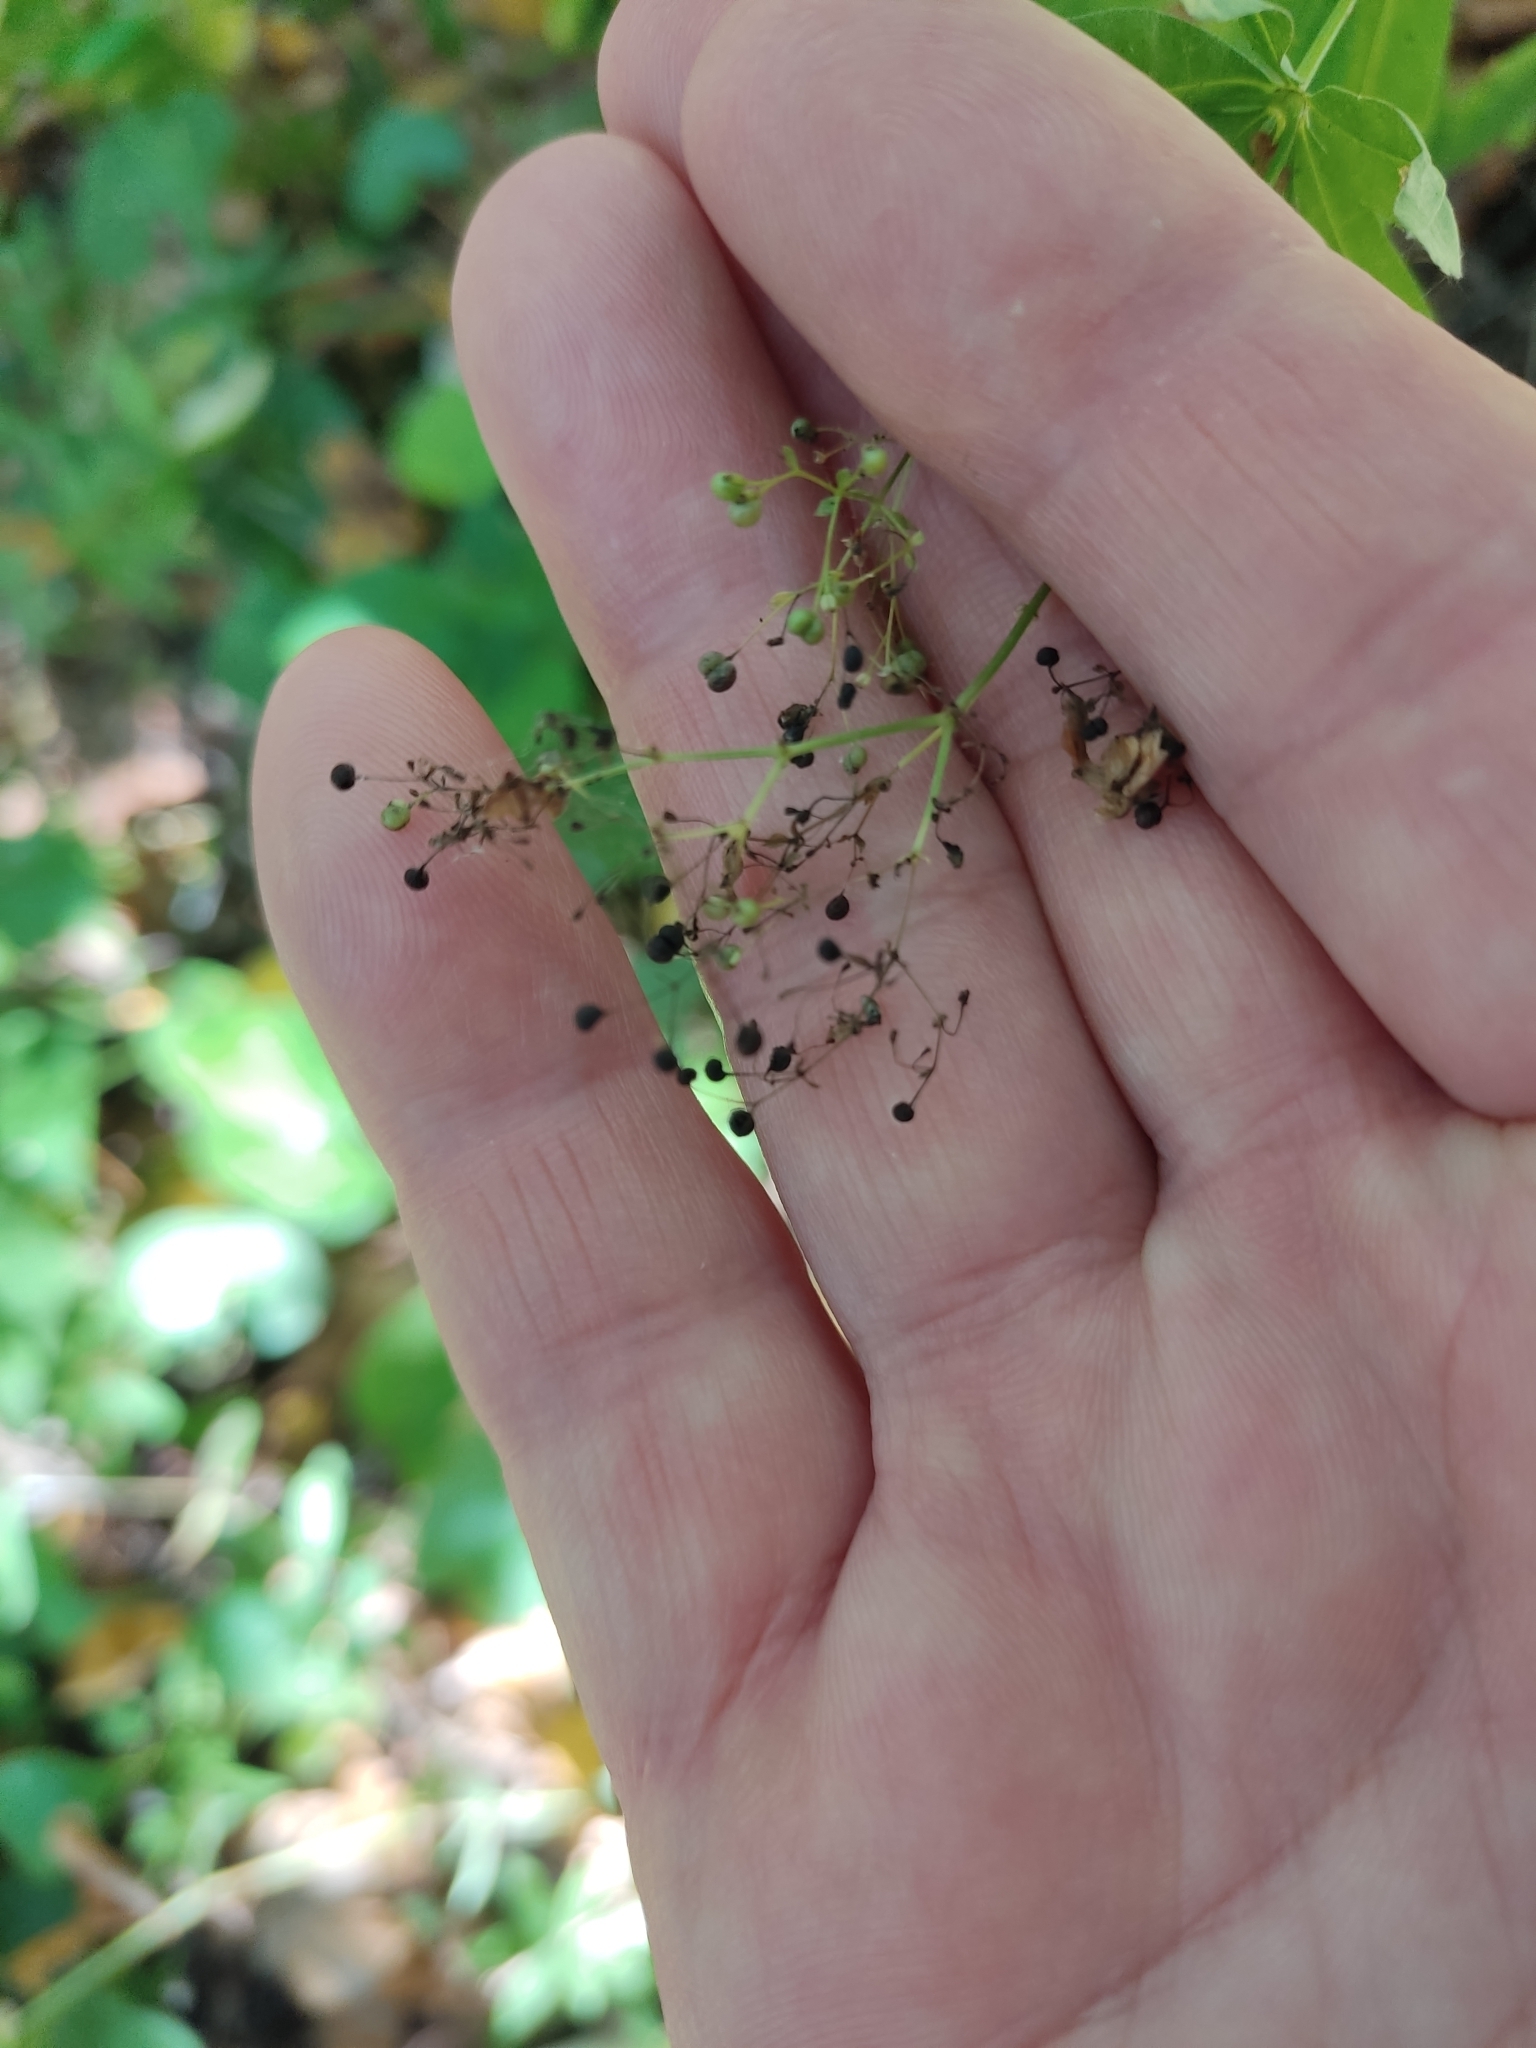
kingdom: Plantae
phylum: Tracheophyta
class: Magnoliopsida
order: Gentianales
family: Rubiaceae
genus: Galium
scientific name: Galium intermedium
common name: Bedstraw
